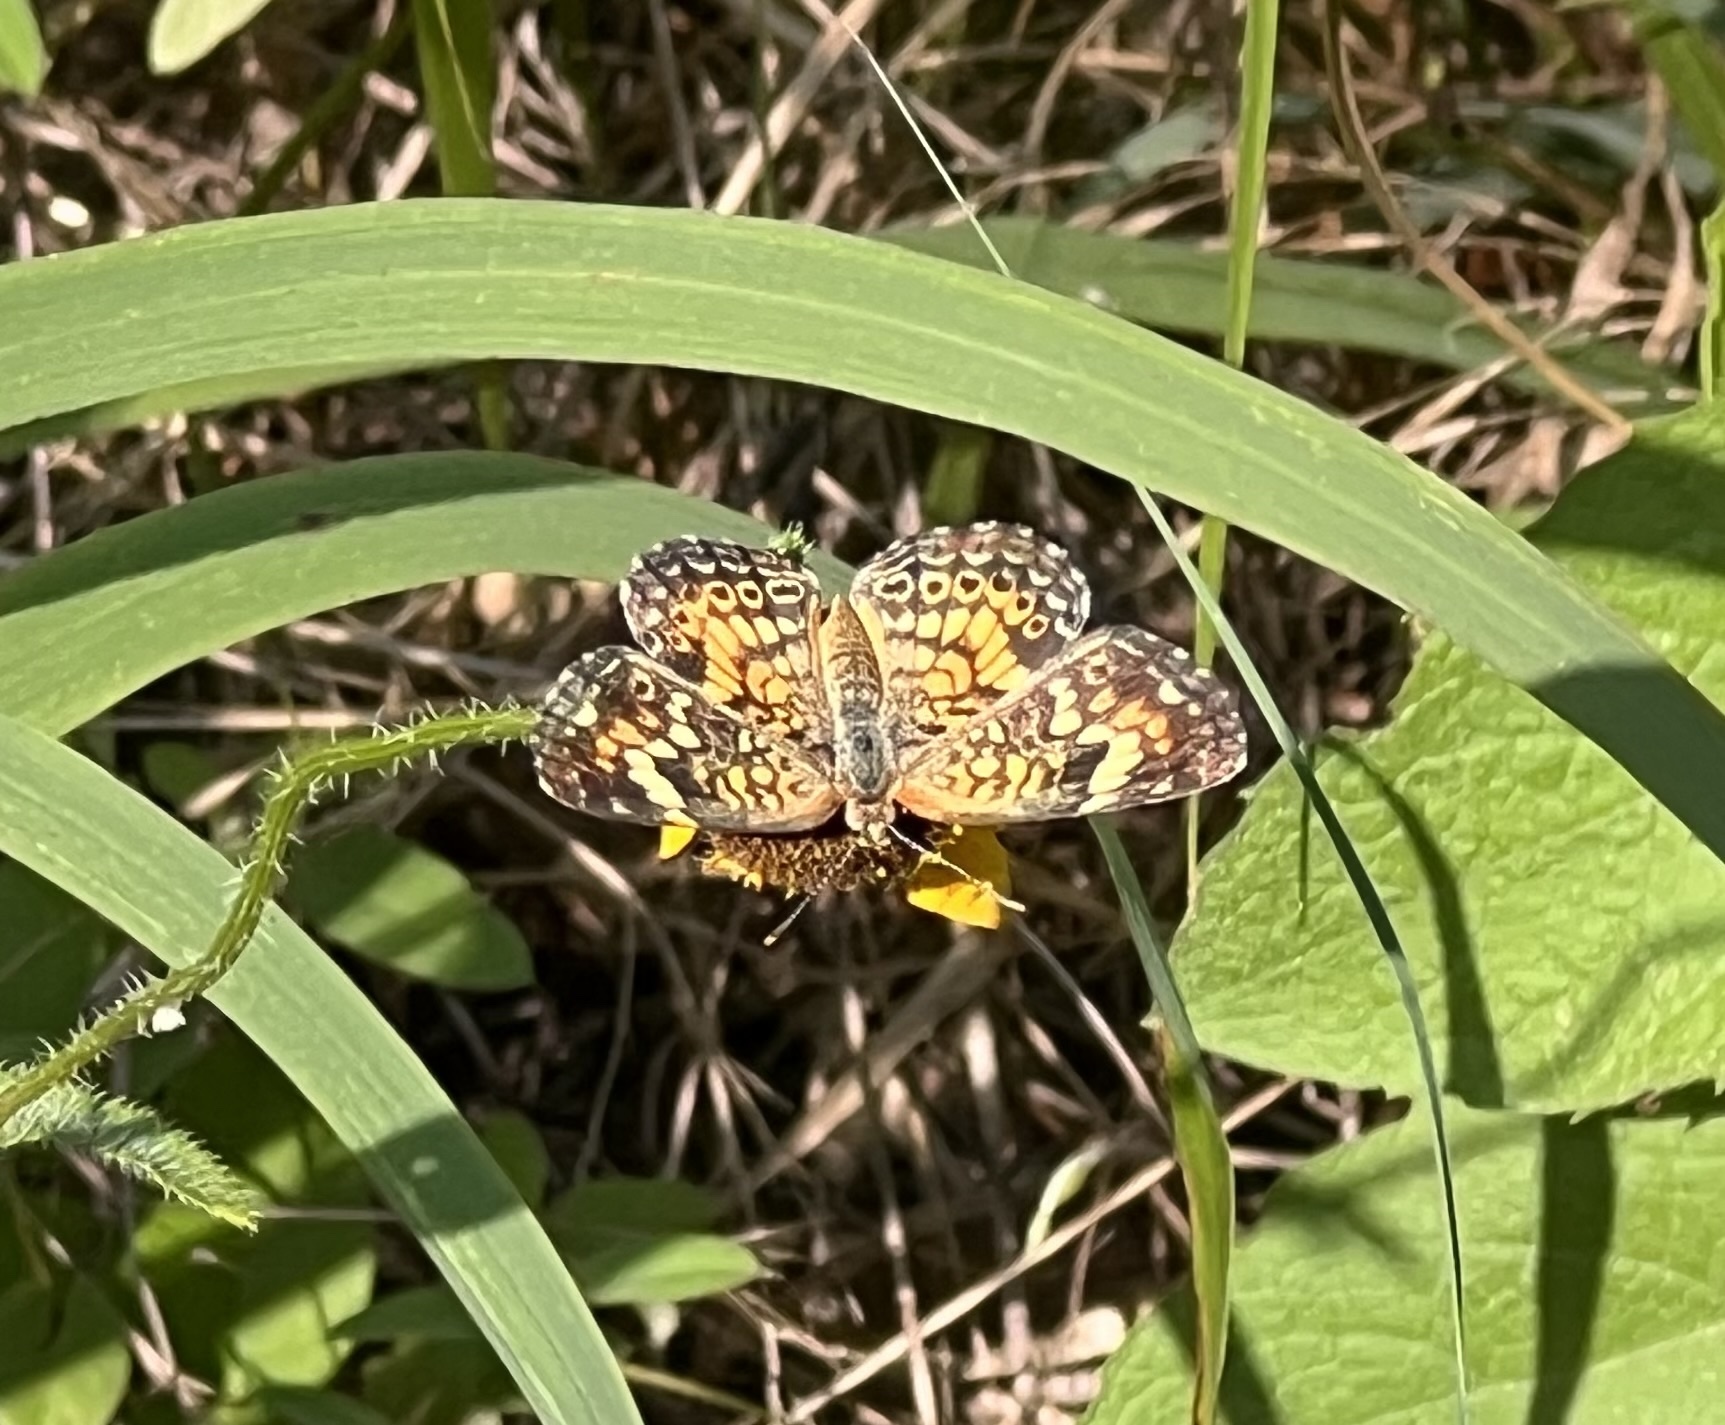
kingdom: Animalia
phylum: Arthropoda
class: Insecta
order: Lepidoptera
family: Nymphalidae
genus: Phyciodes
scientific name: Phyciodes phaon
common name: Phaon crescent
